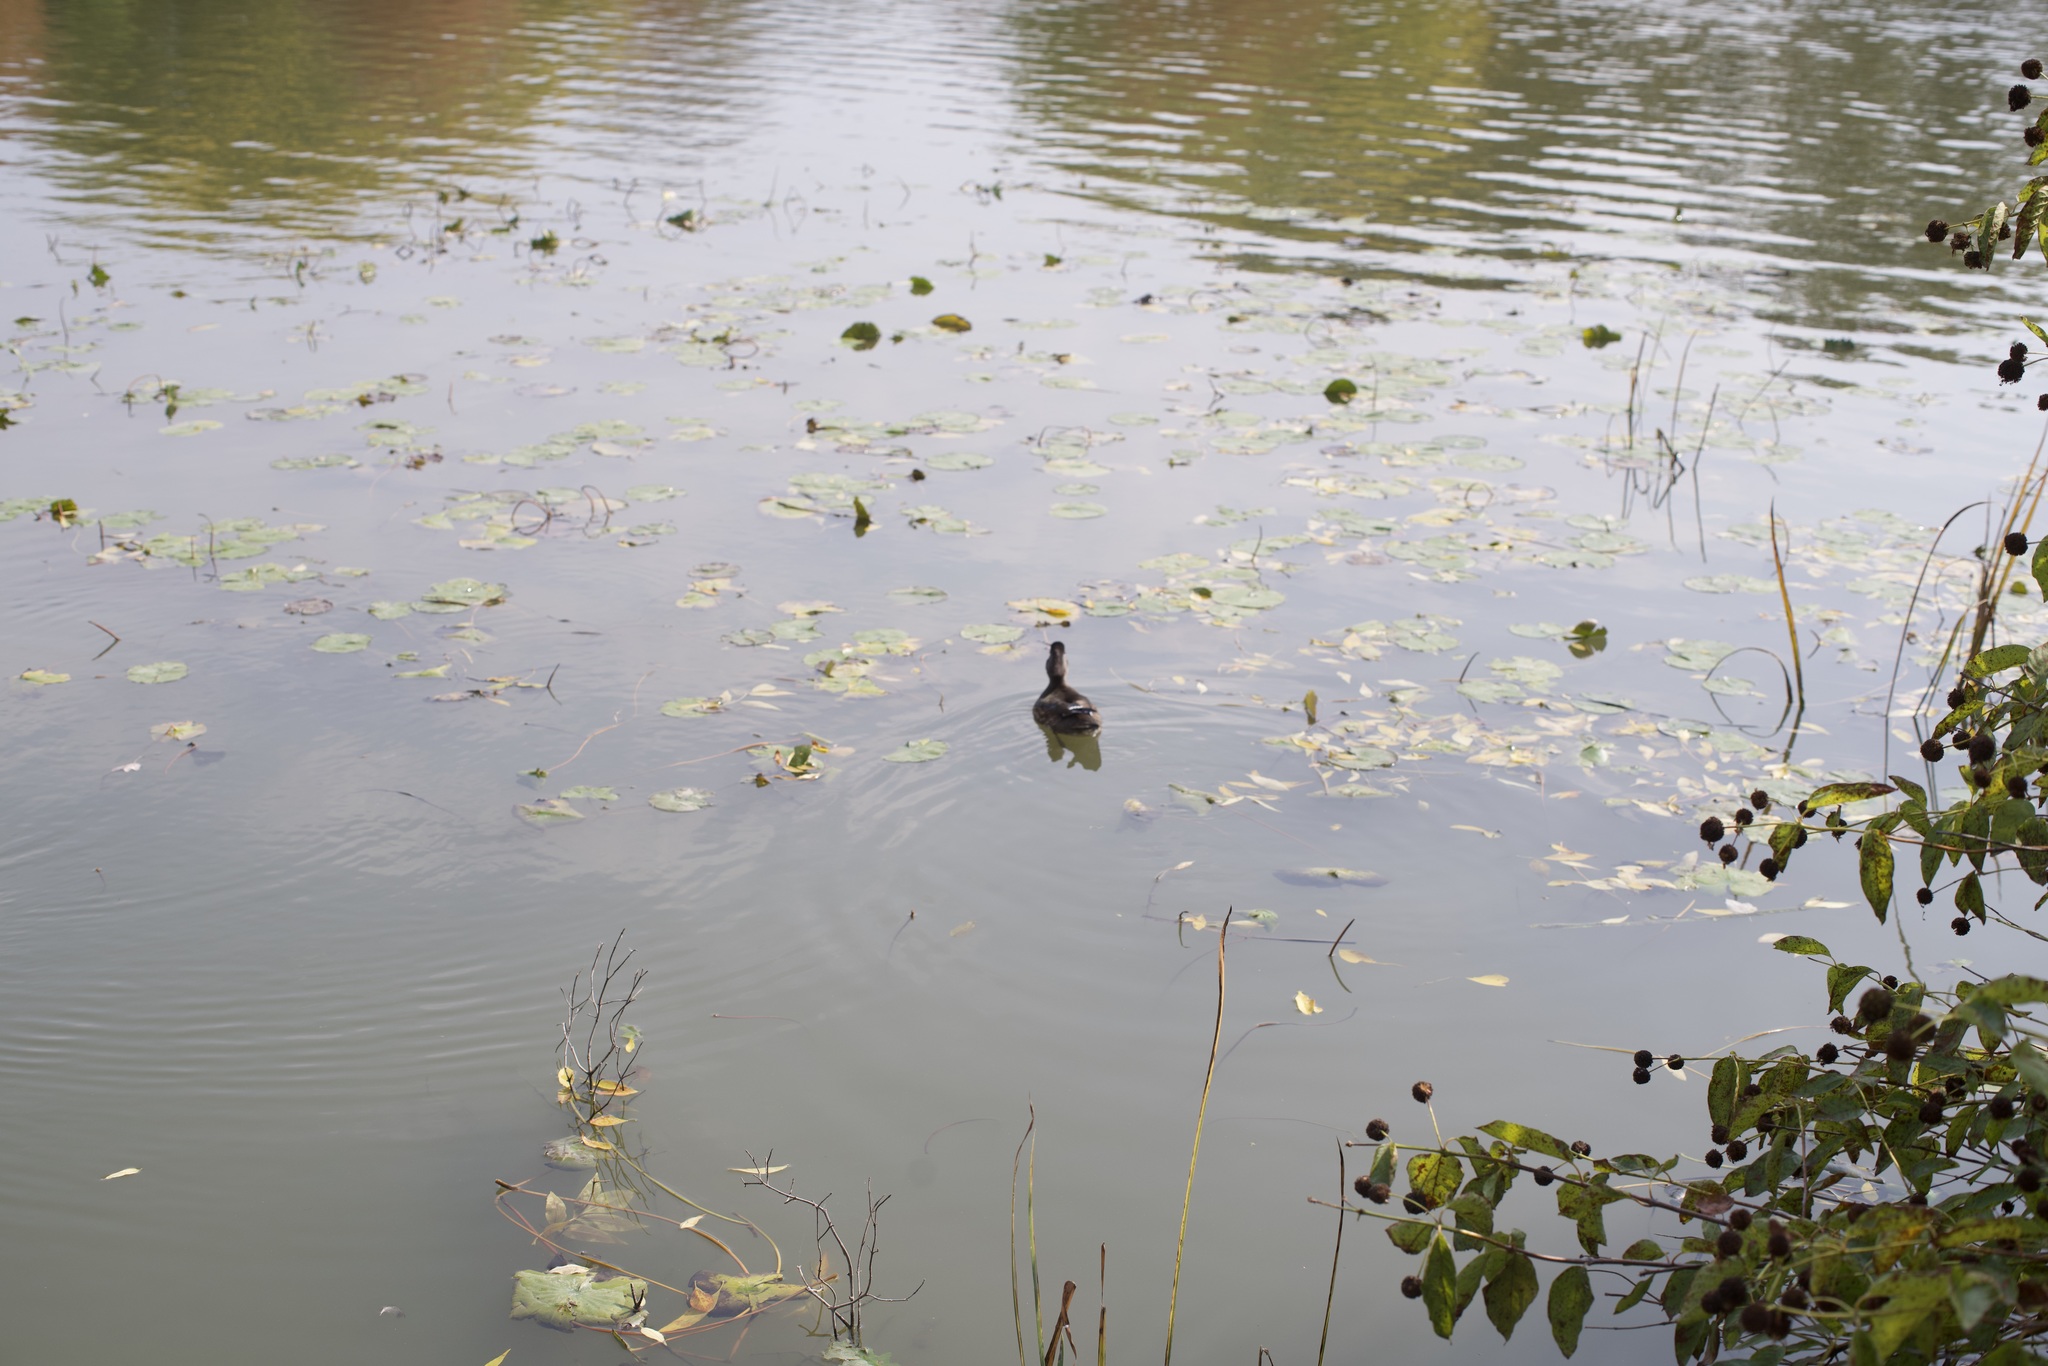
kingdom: Animalia
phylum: Chordata
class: Aves
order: Anseriformes
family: Anatidae
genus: Aix
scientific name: Aix sponsa
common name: Wood duck
